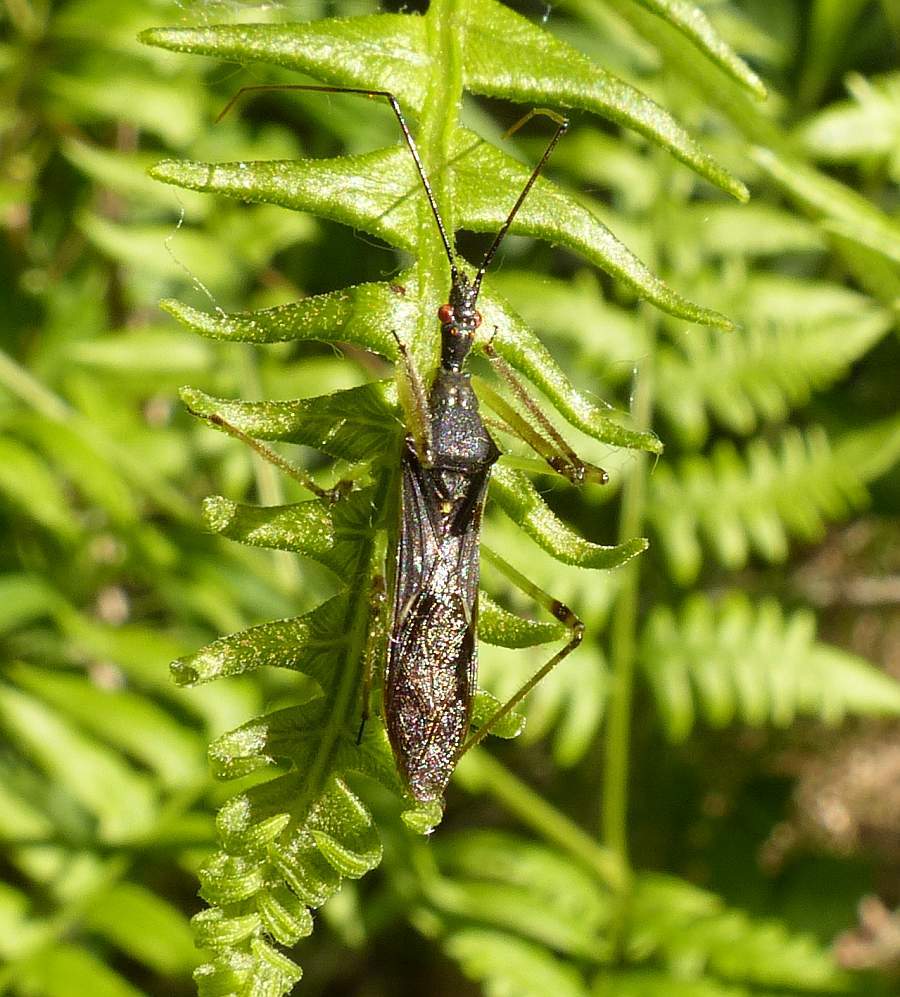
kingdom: Animalia
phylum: Arthropoda
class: Insecta
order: Hemiptera
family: Reduviidae
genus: Zelus
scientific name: Zelus luridus
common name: Pale green assassin bug
